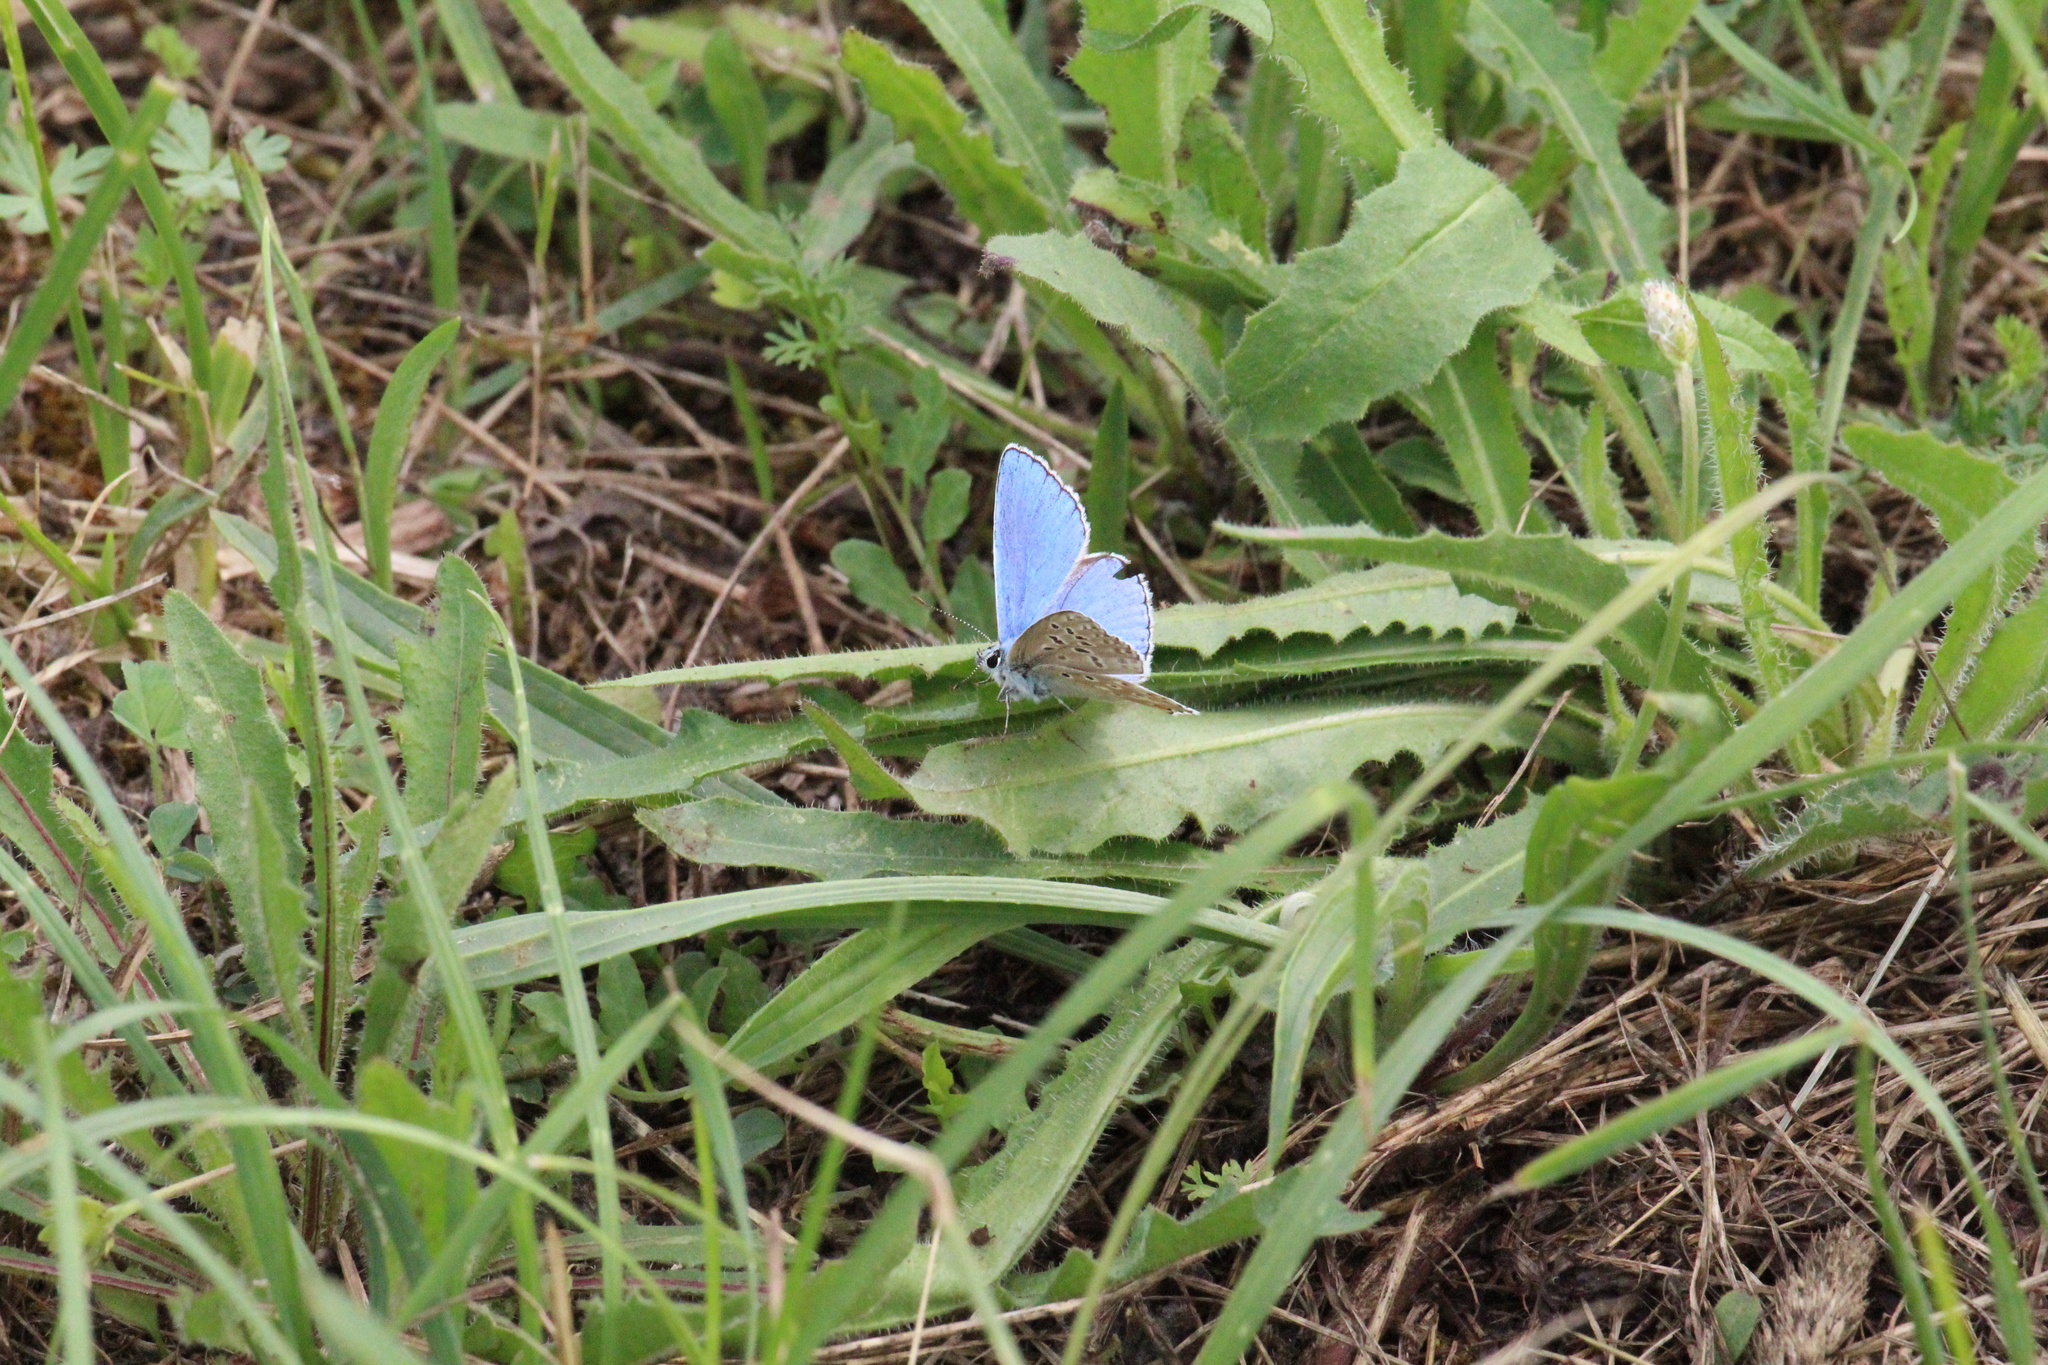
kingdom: Animalia
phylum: Arthropoda
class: Insecta
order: Lepidoptera
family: Lycaenidae
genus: Lysandra
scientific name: Lysandra bellargus
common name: Adonis blue
